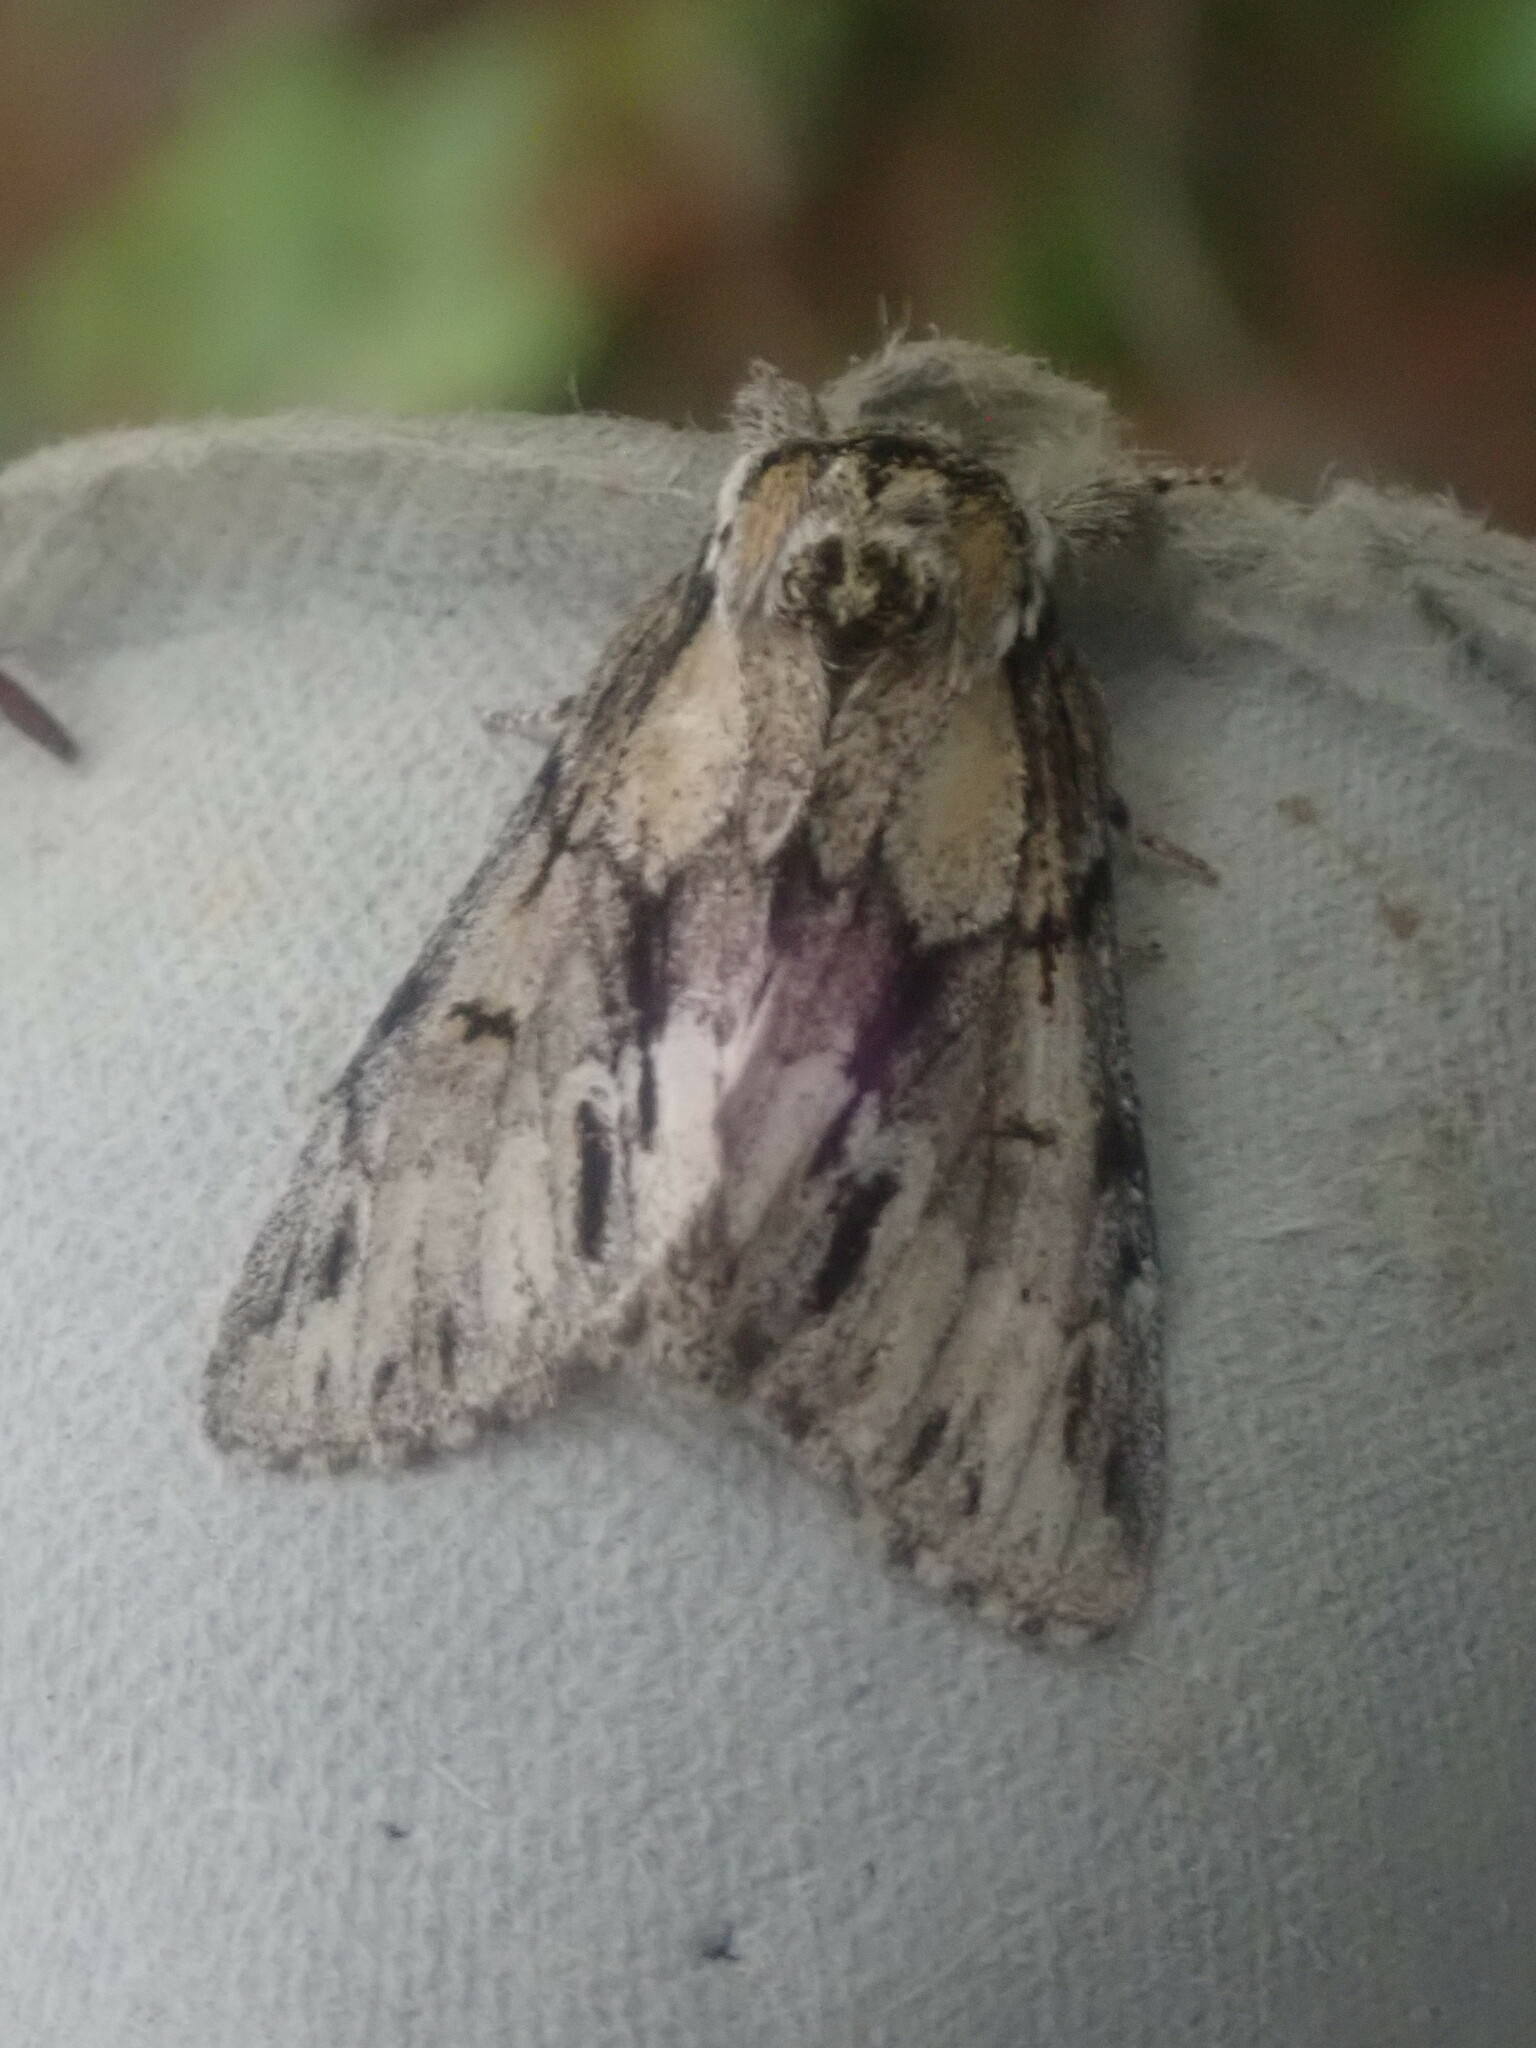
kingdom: Animalia
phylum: Arthropoda
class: Insecta
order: Lepidoptera
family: Notodontidae
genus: Paraeschra
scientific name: Paraeschra georgica
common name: Georgian prominent
